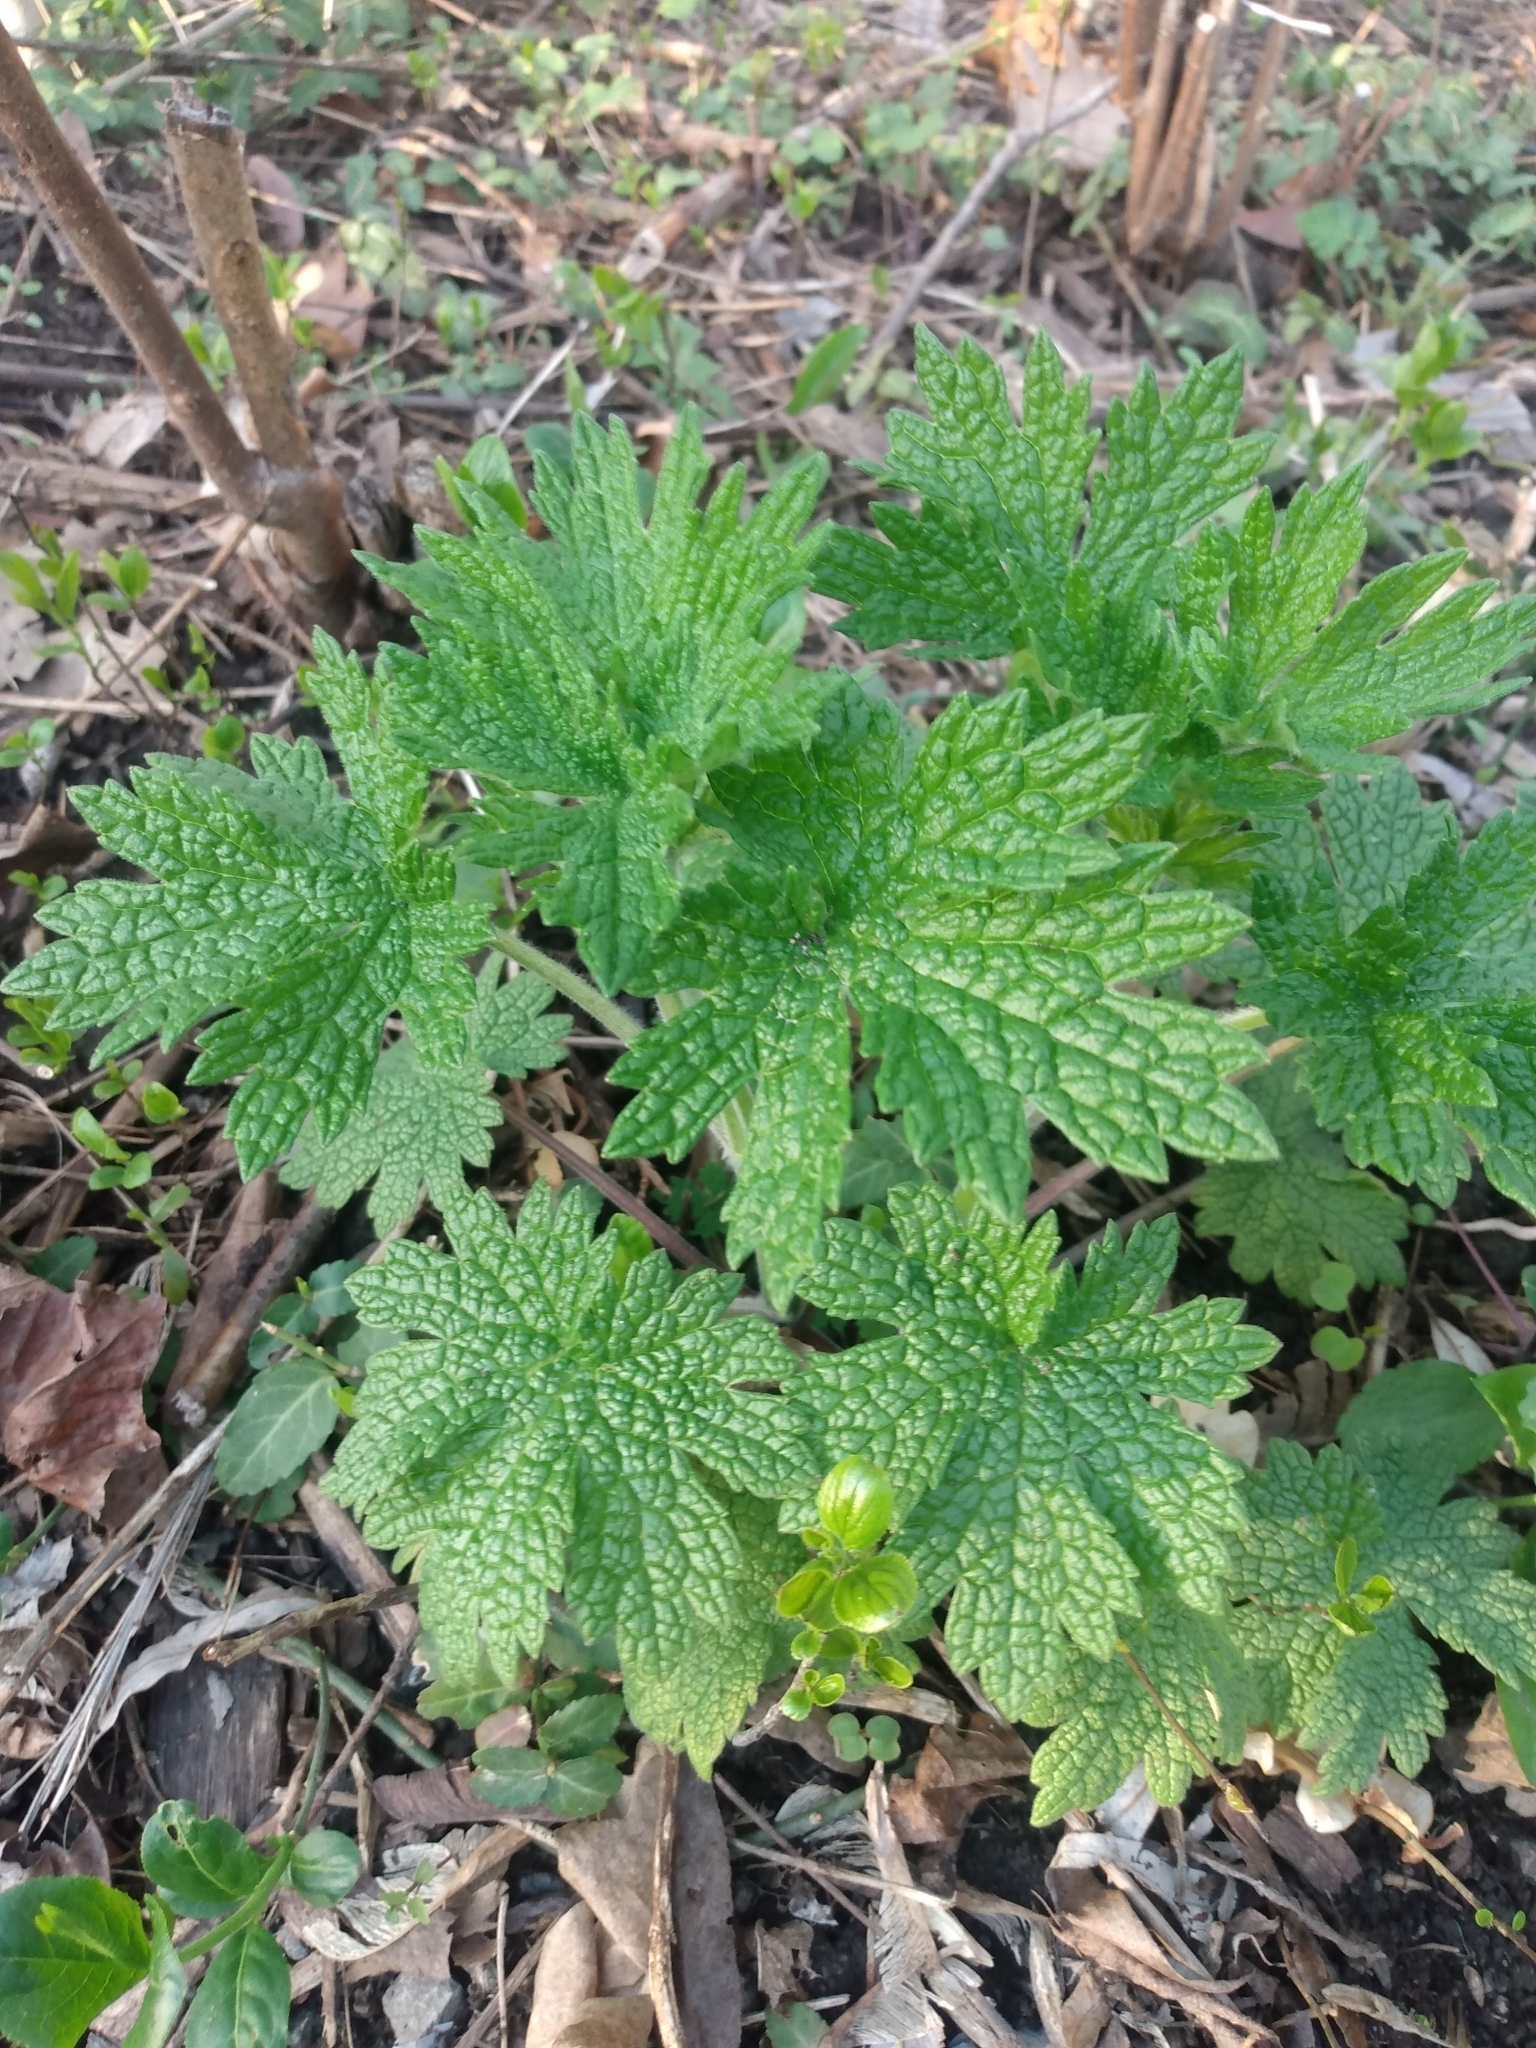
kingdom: Plantae
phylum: Tracheophyta
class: Magnoliopsida
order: Lamiales
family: Lamiaceae
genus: Leonurus
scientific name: Leonurus cardiaca
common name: Motherwort
